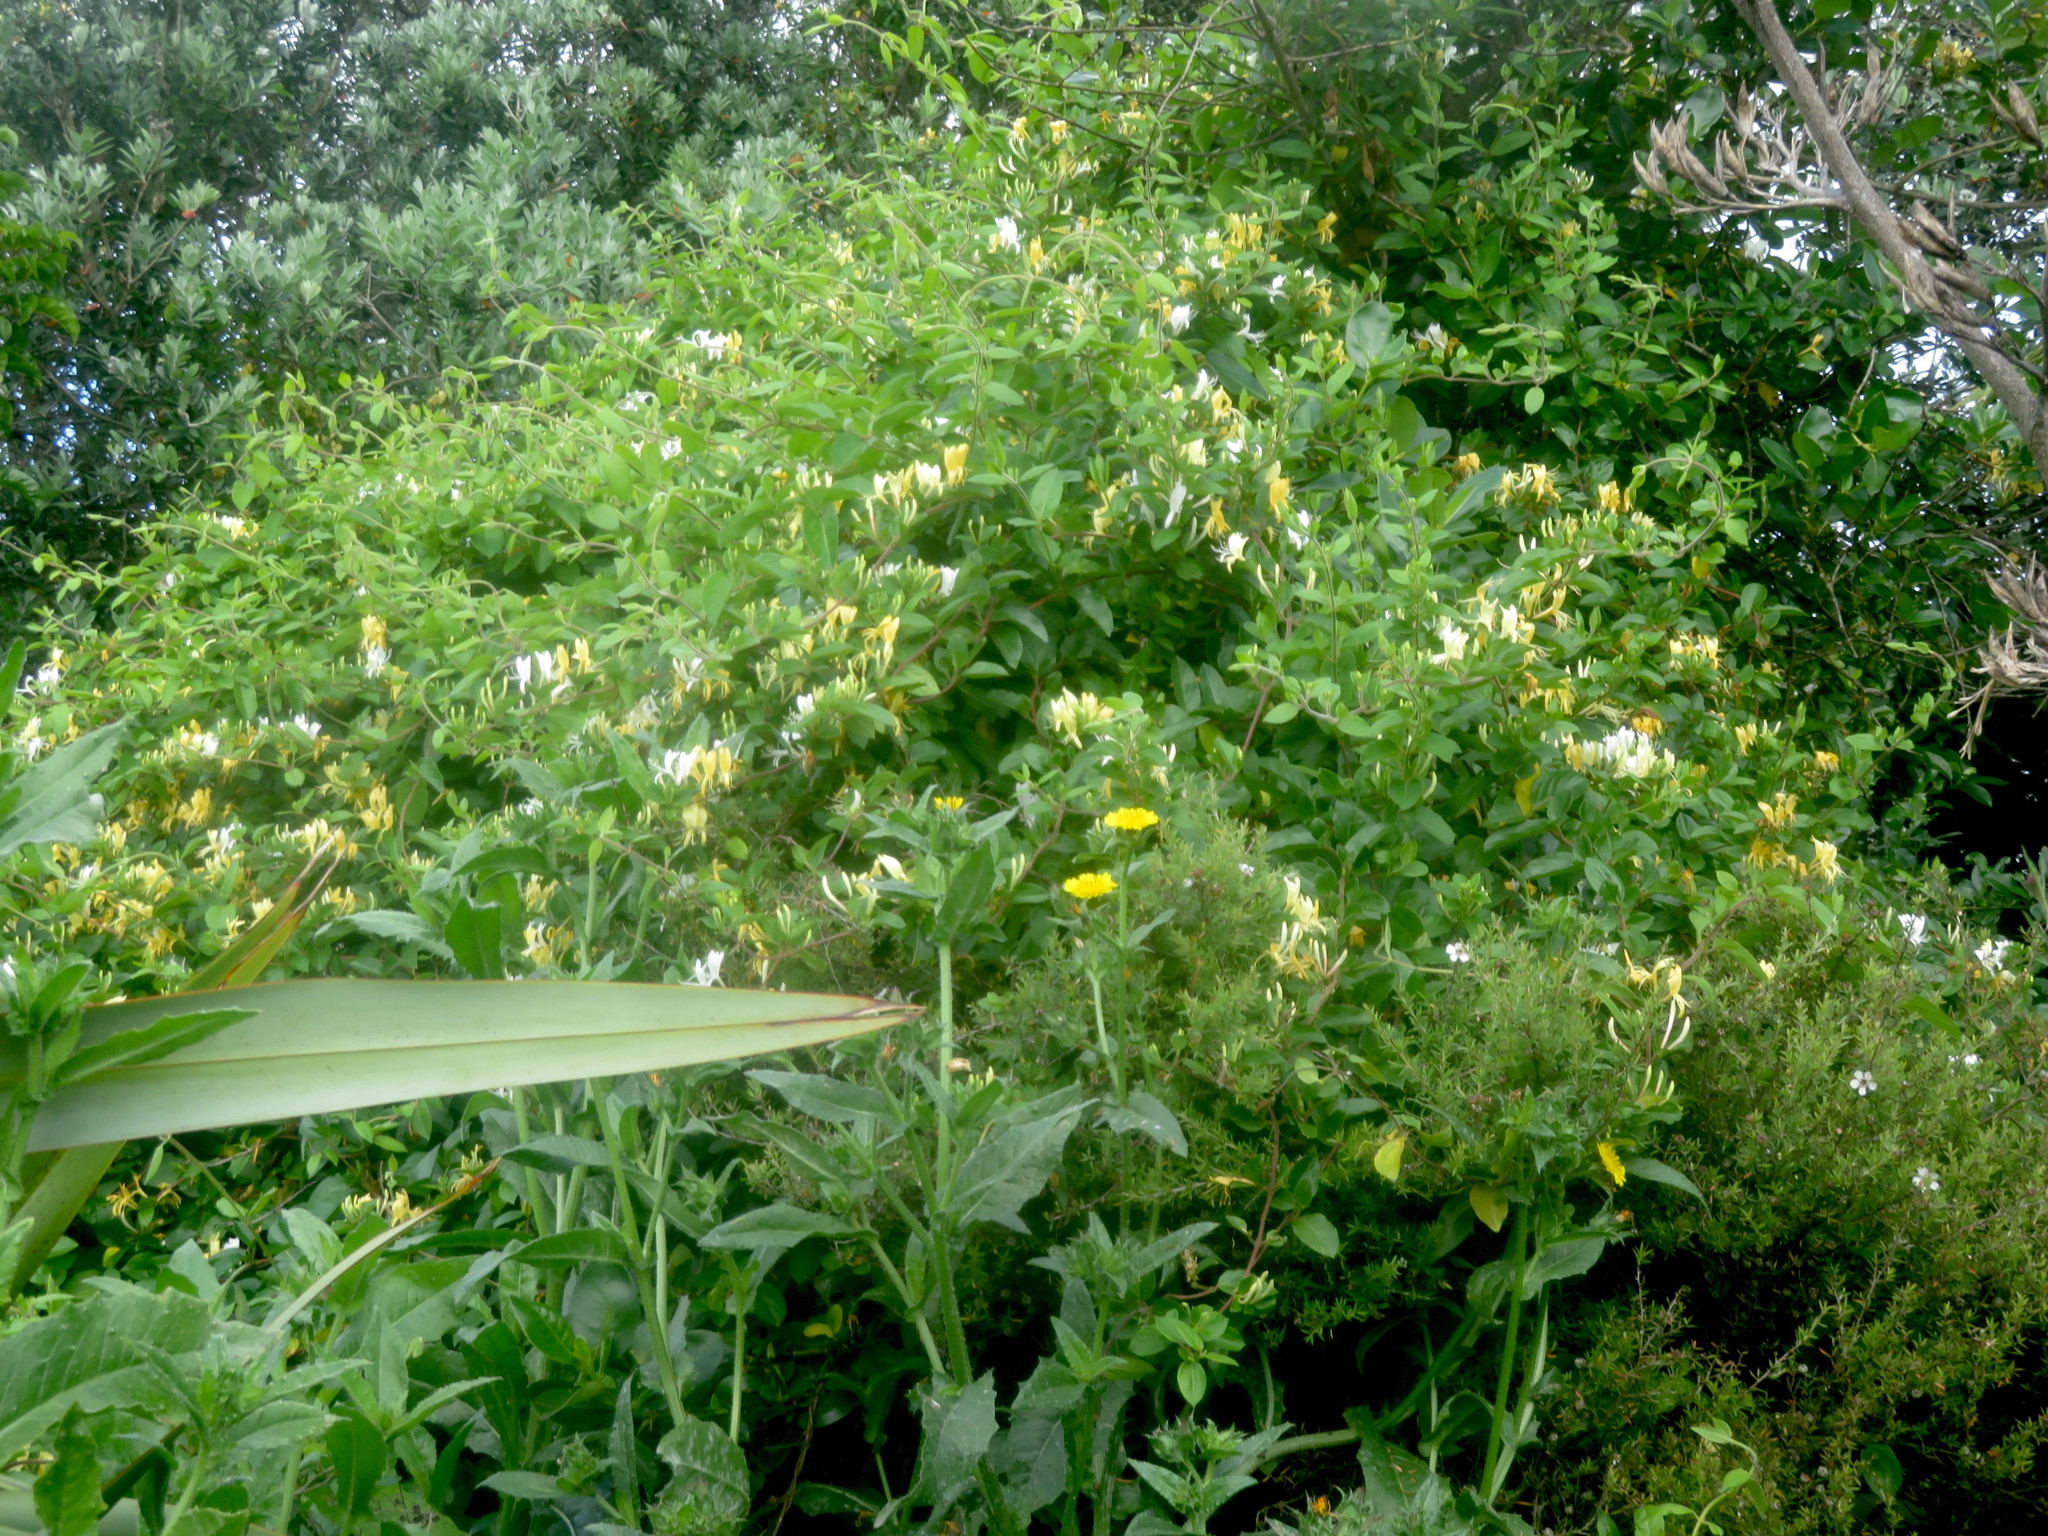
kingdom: Plantae
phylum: Tracheophyta
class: Magnoliopsida
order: Dipsacales
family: Caprifoliaceae
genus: Lonicera
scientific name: Lonicera japonica
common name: Japanese honeysuckle
